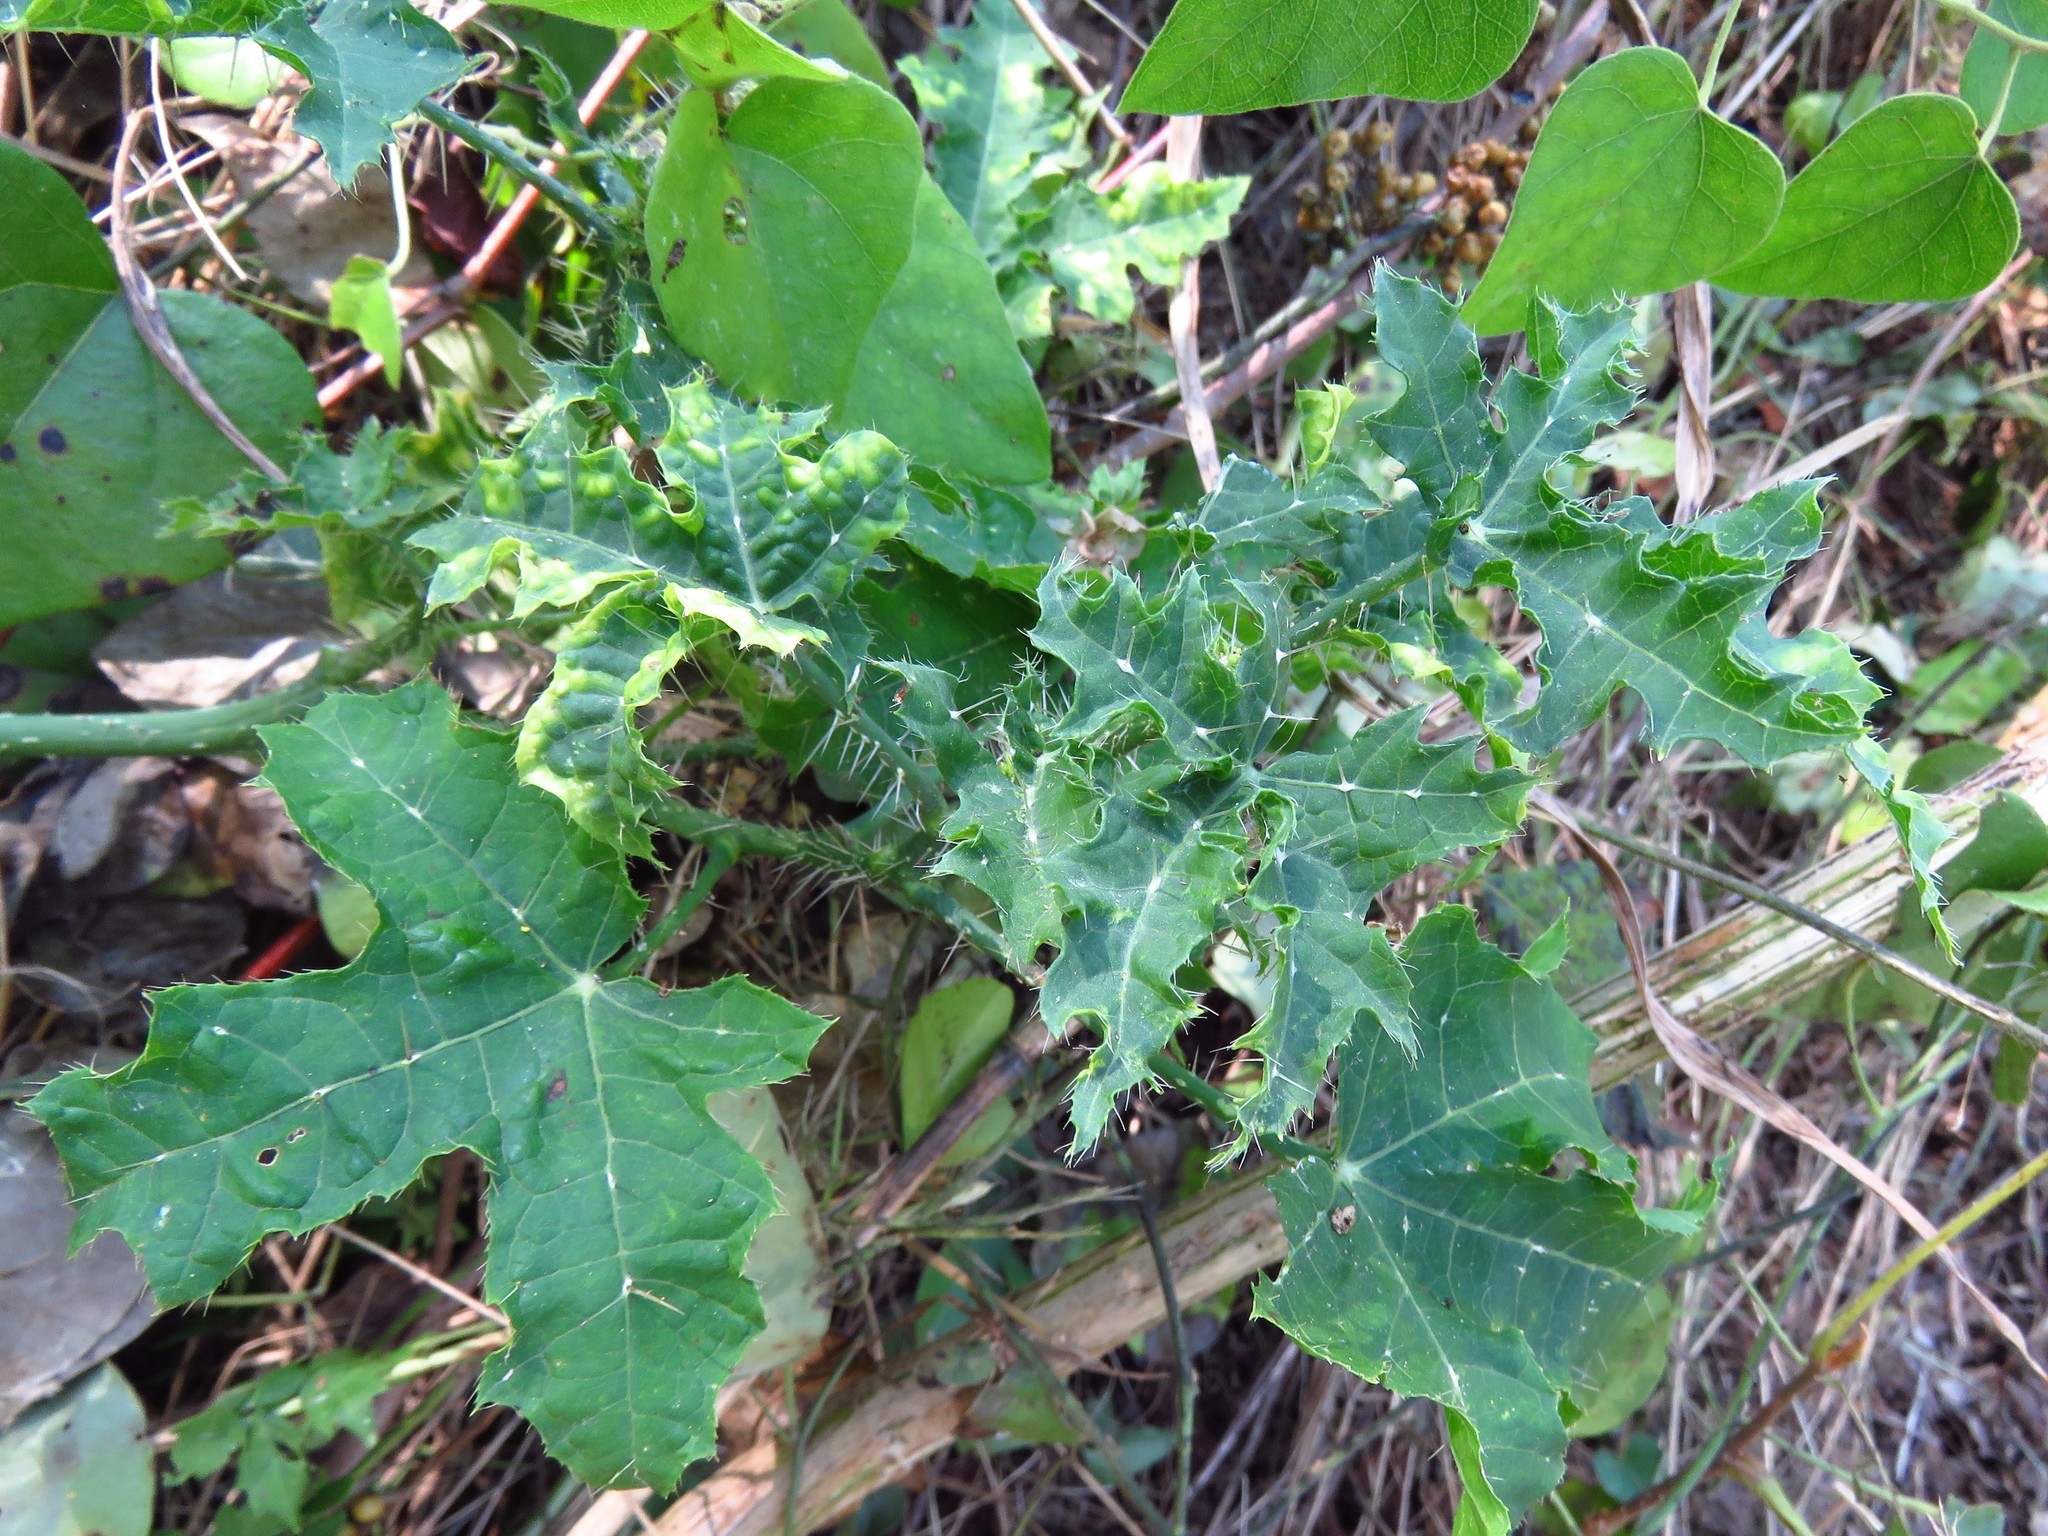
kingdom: Plantae
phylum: Tracheophyta
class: Magnoliopsida
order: Malpighiales
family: Euphorbiaceae
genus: Cnidoscolus
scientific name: Cnidoscolus texanus
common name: Texas bull-nettle
